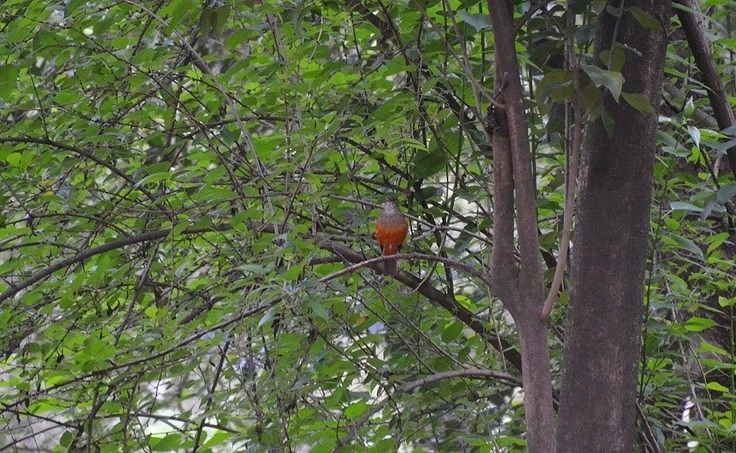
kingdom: Animalia
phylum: Chordata
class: Aves
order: Passeriformes
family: Turdidae
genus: Turdus
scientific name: Turdus rufiventris
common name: Rufous-bellied thrush
